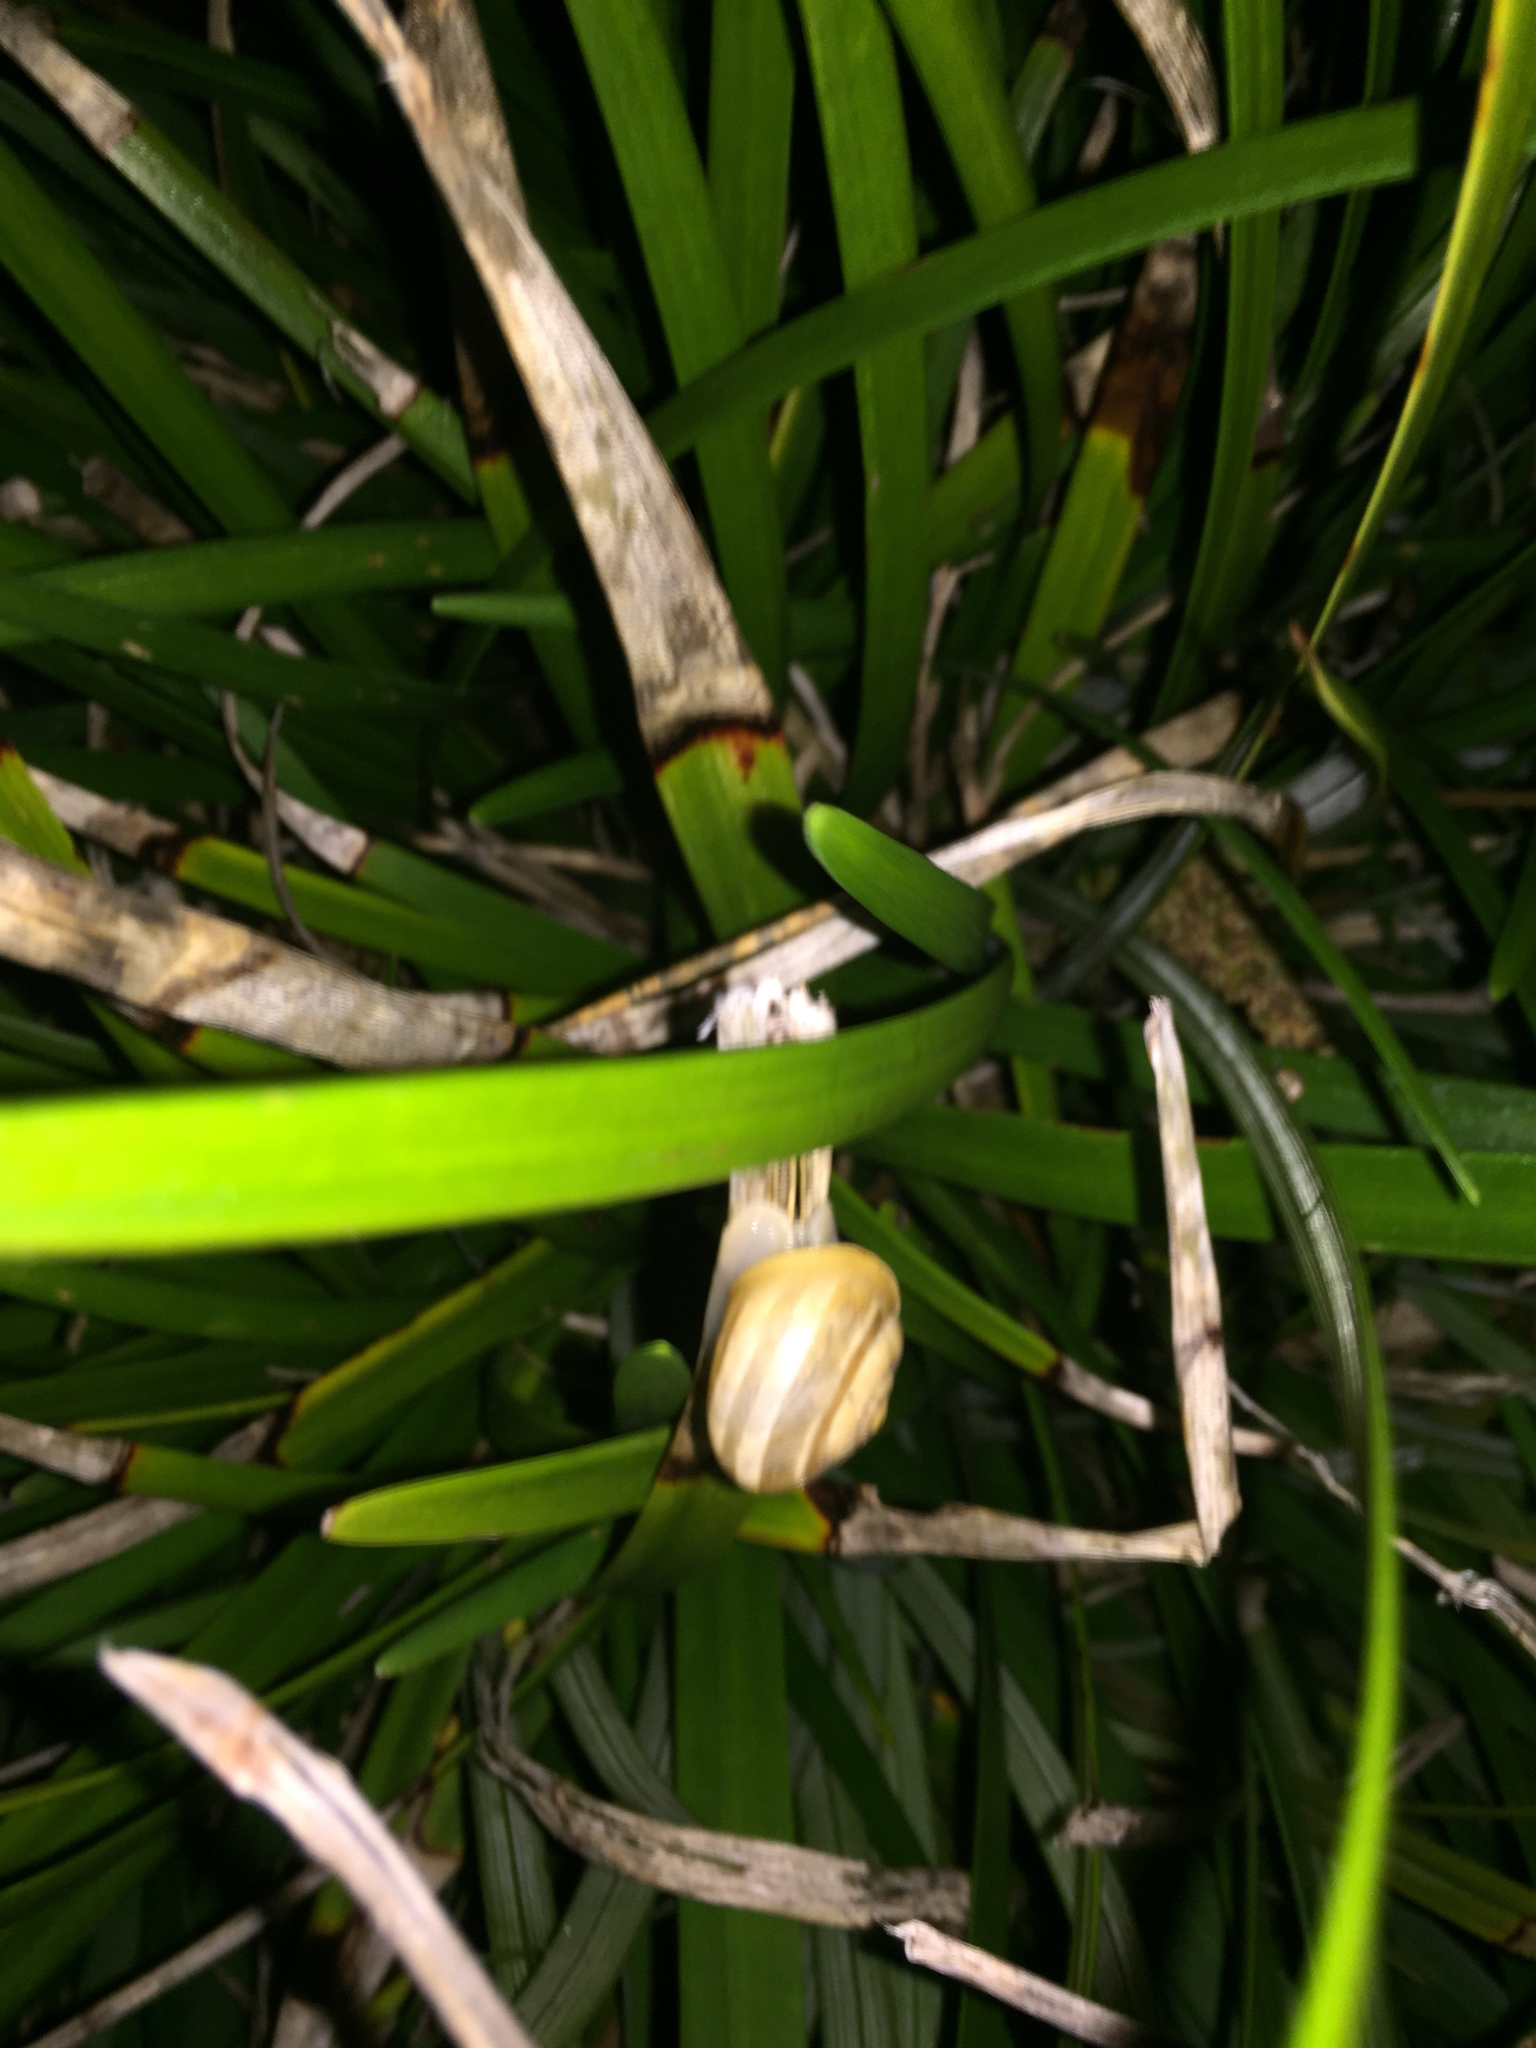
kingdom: Animalia
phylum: Mollusca
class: Gastropoda
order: Stylommatophora
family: Helicidae
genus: Eobania
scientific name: Eobania vermiculata
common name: Chocolateband snail
